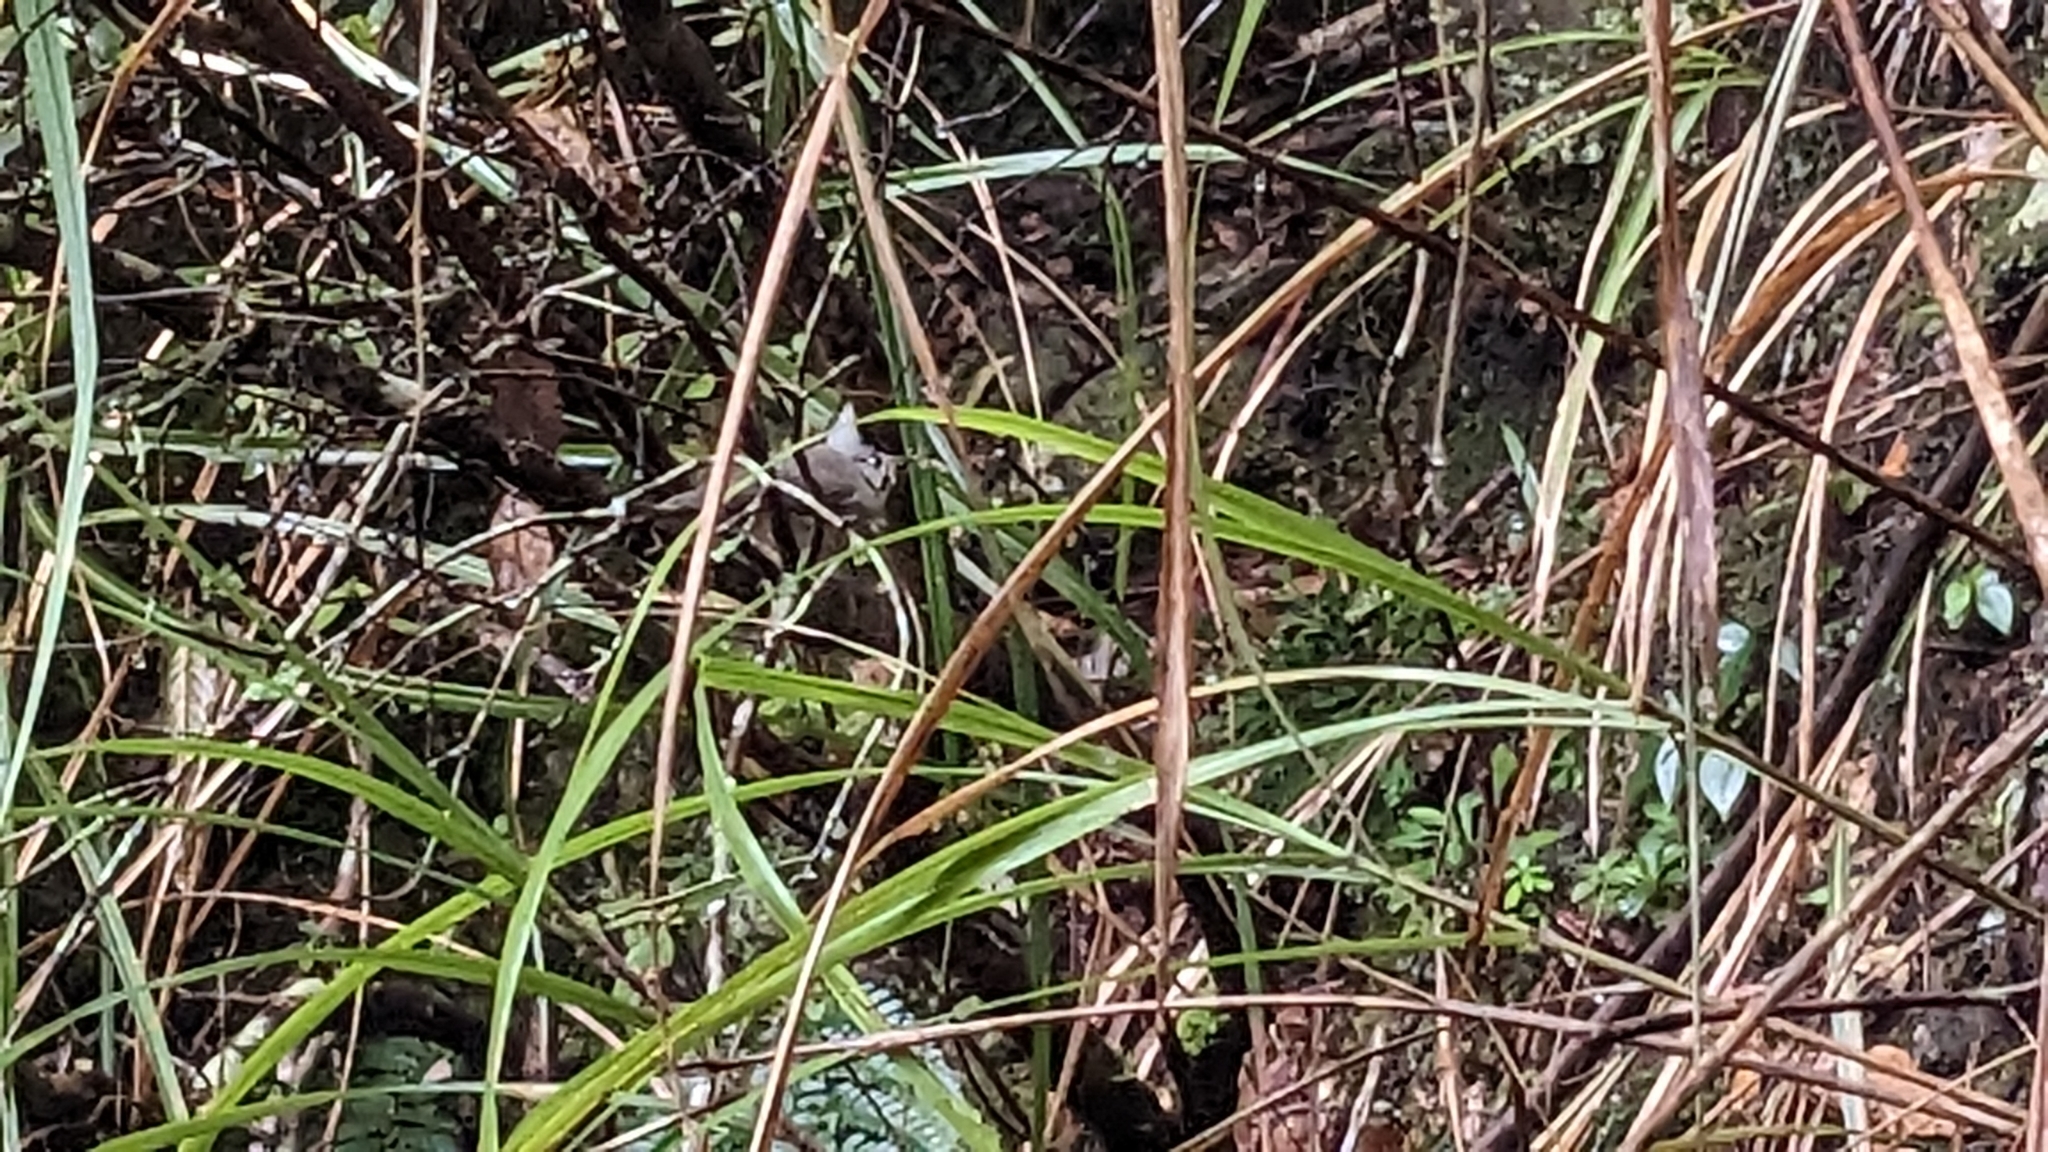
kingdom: Animalia
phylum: Chordata
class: Aves
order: Passeriformes
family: Zosteropidae
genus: Yuhina
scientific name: Yuhina brunneiceps
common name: Taiwan yuhina
